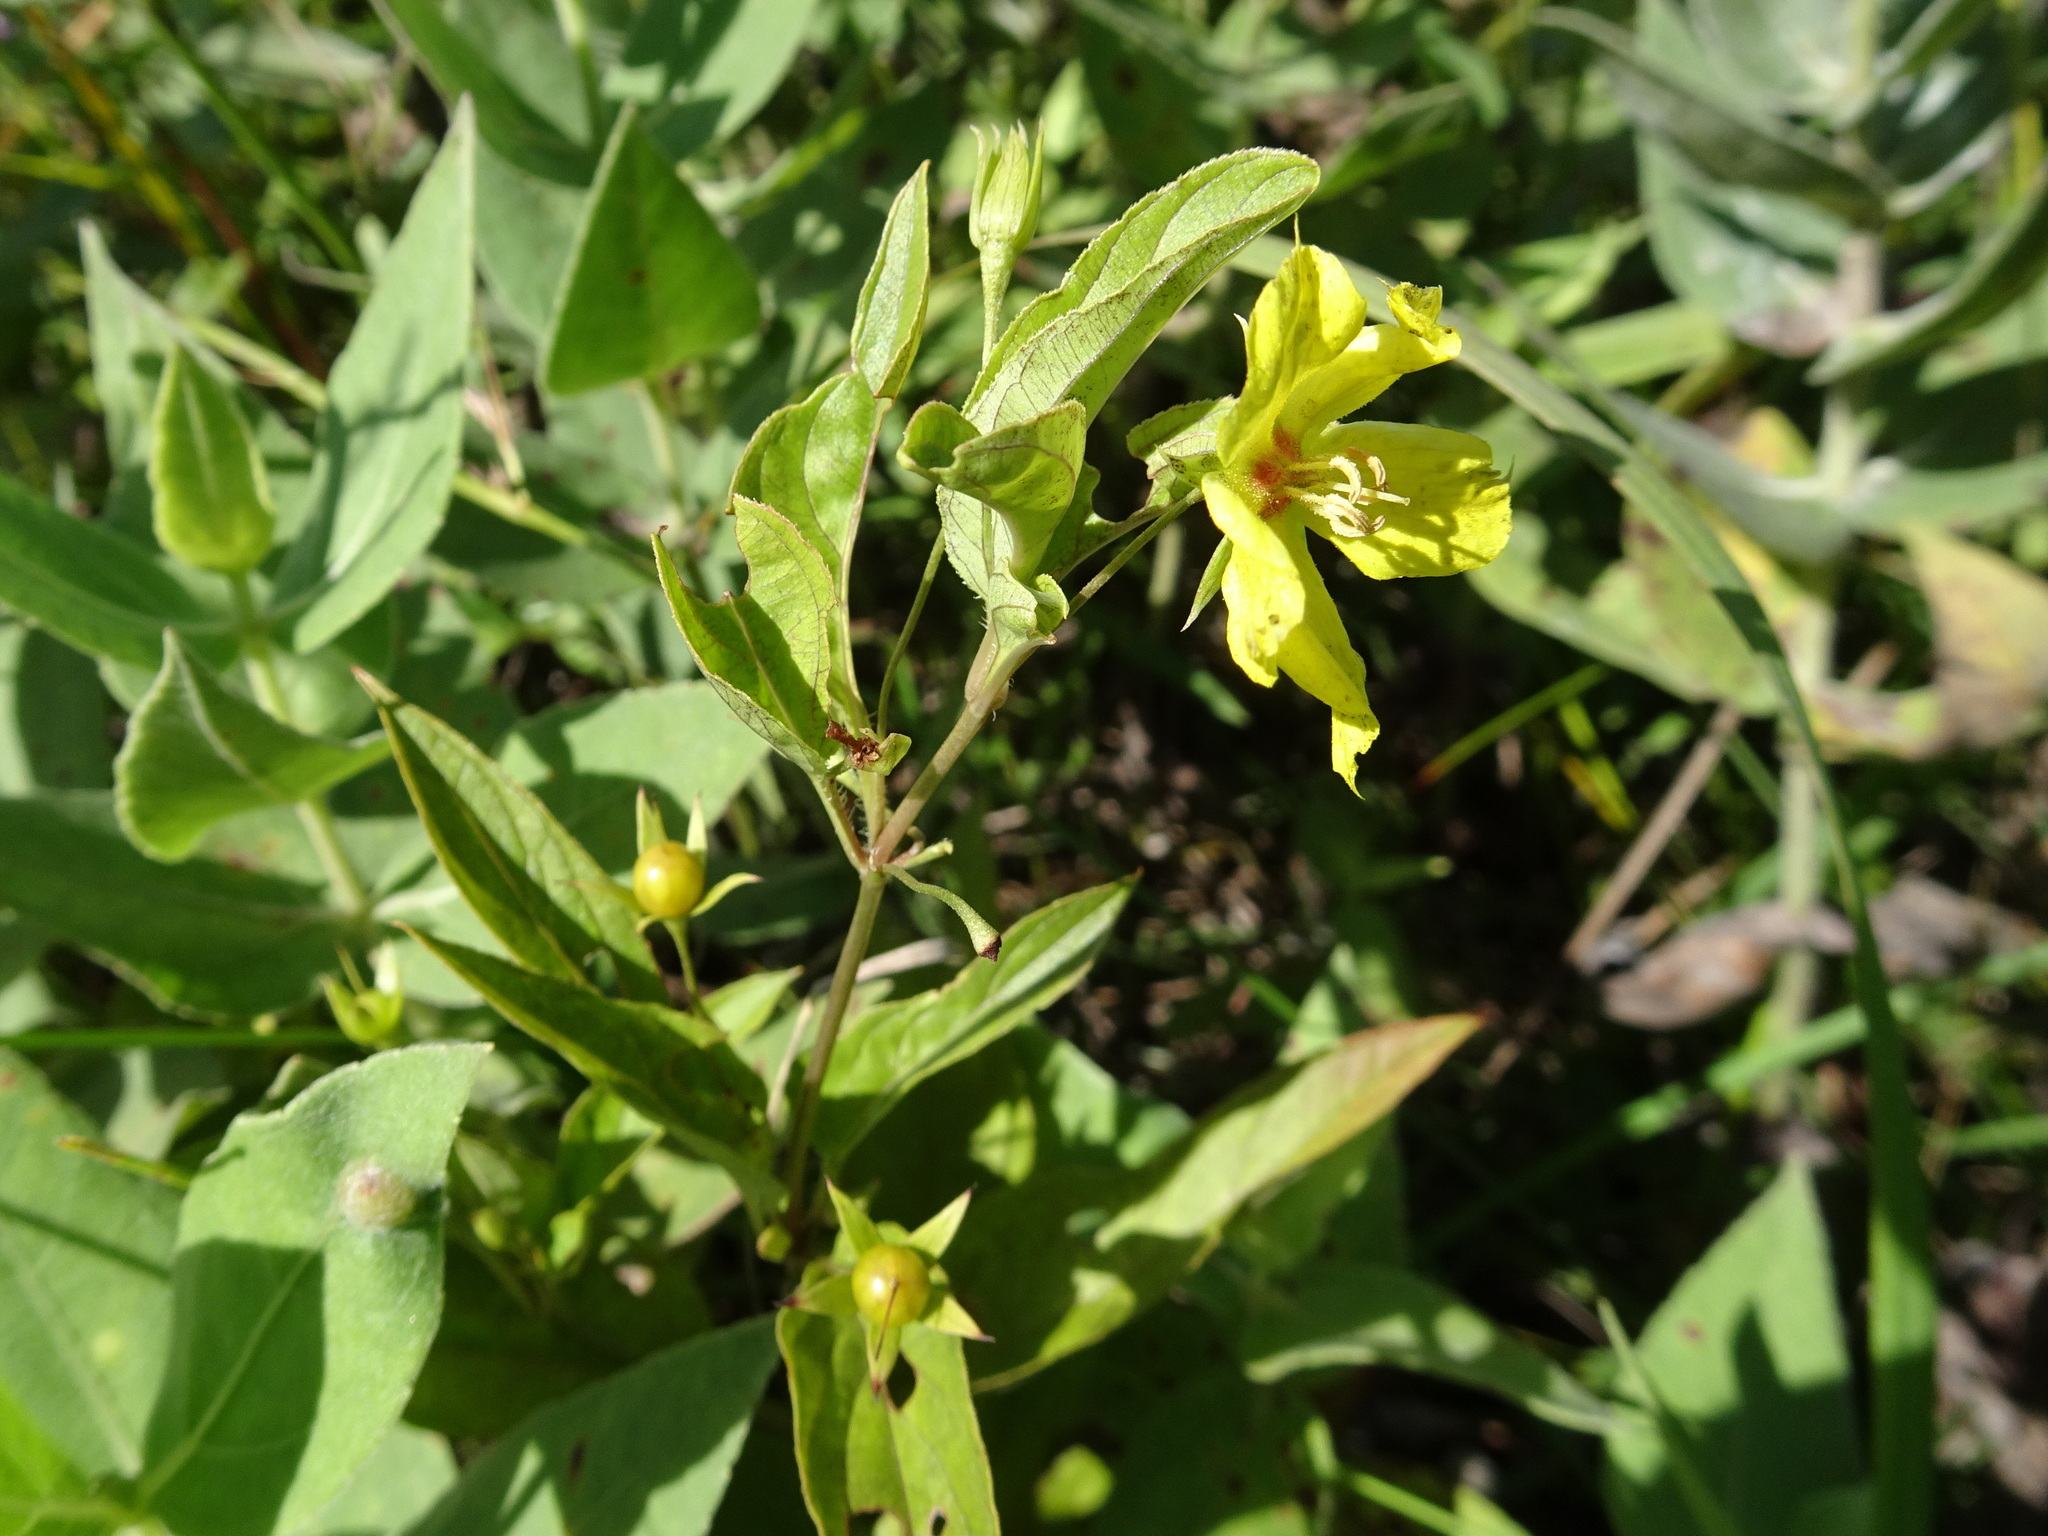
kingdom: Plantae
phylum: Tracheophyta
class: Magnoliopsida
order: Ericales
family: Primulaceae
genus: Lysimachia
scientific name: Lysimachia ciliata
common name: Fringed loosestrife
